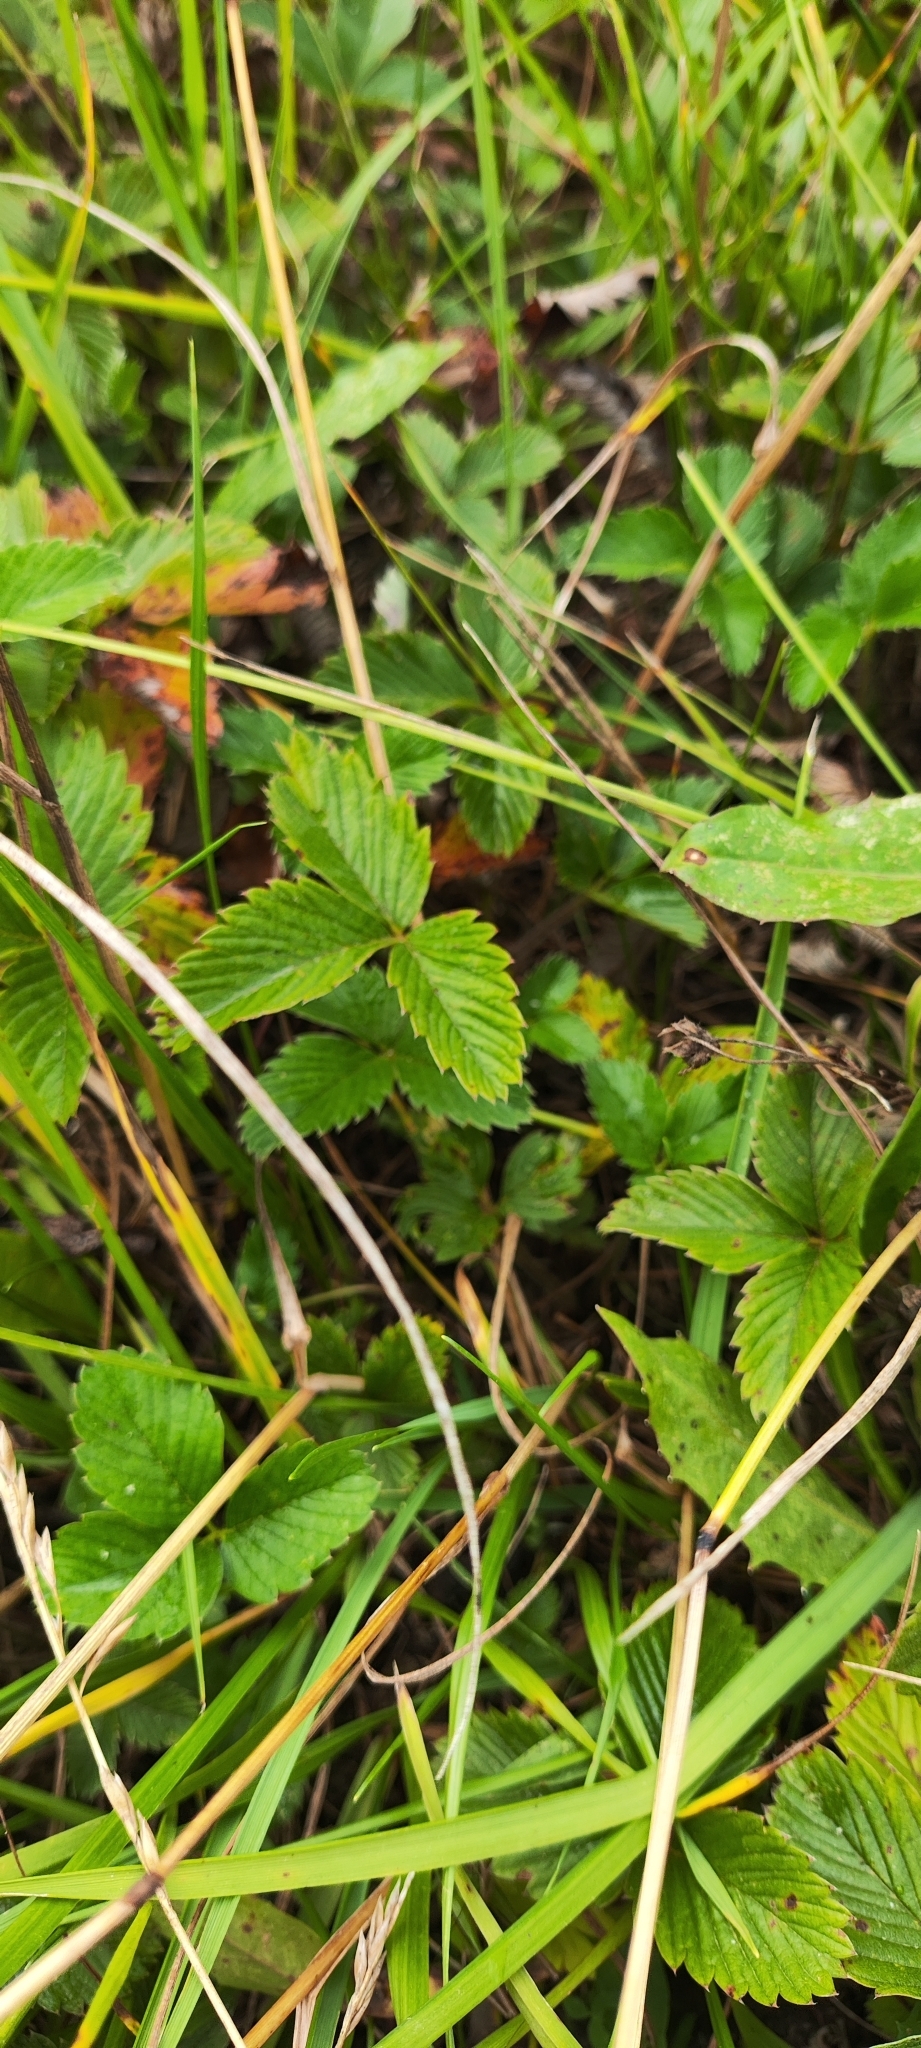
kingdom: Plantae
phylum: Tracheophyta
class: Magnoliopsida
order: Rosales
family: Rosaceae
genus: Fragaria
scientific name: Fragaria viridis
